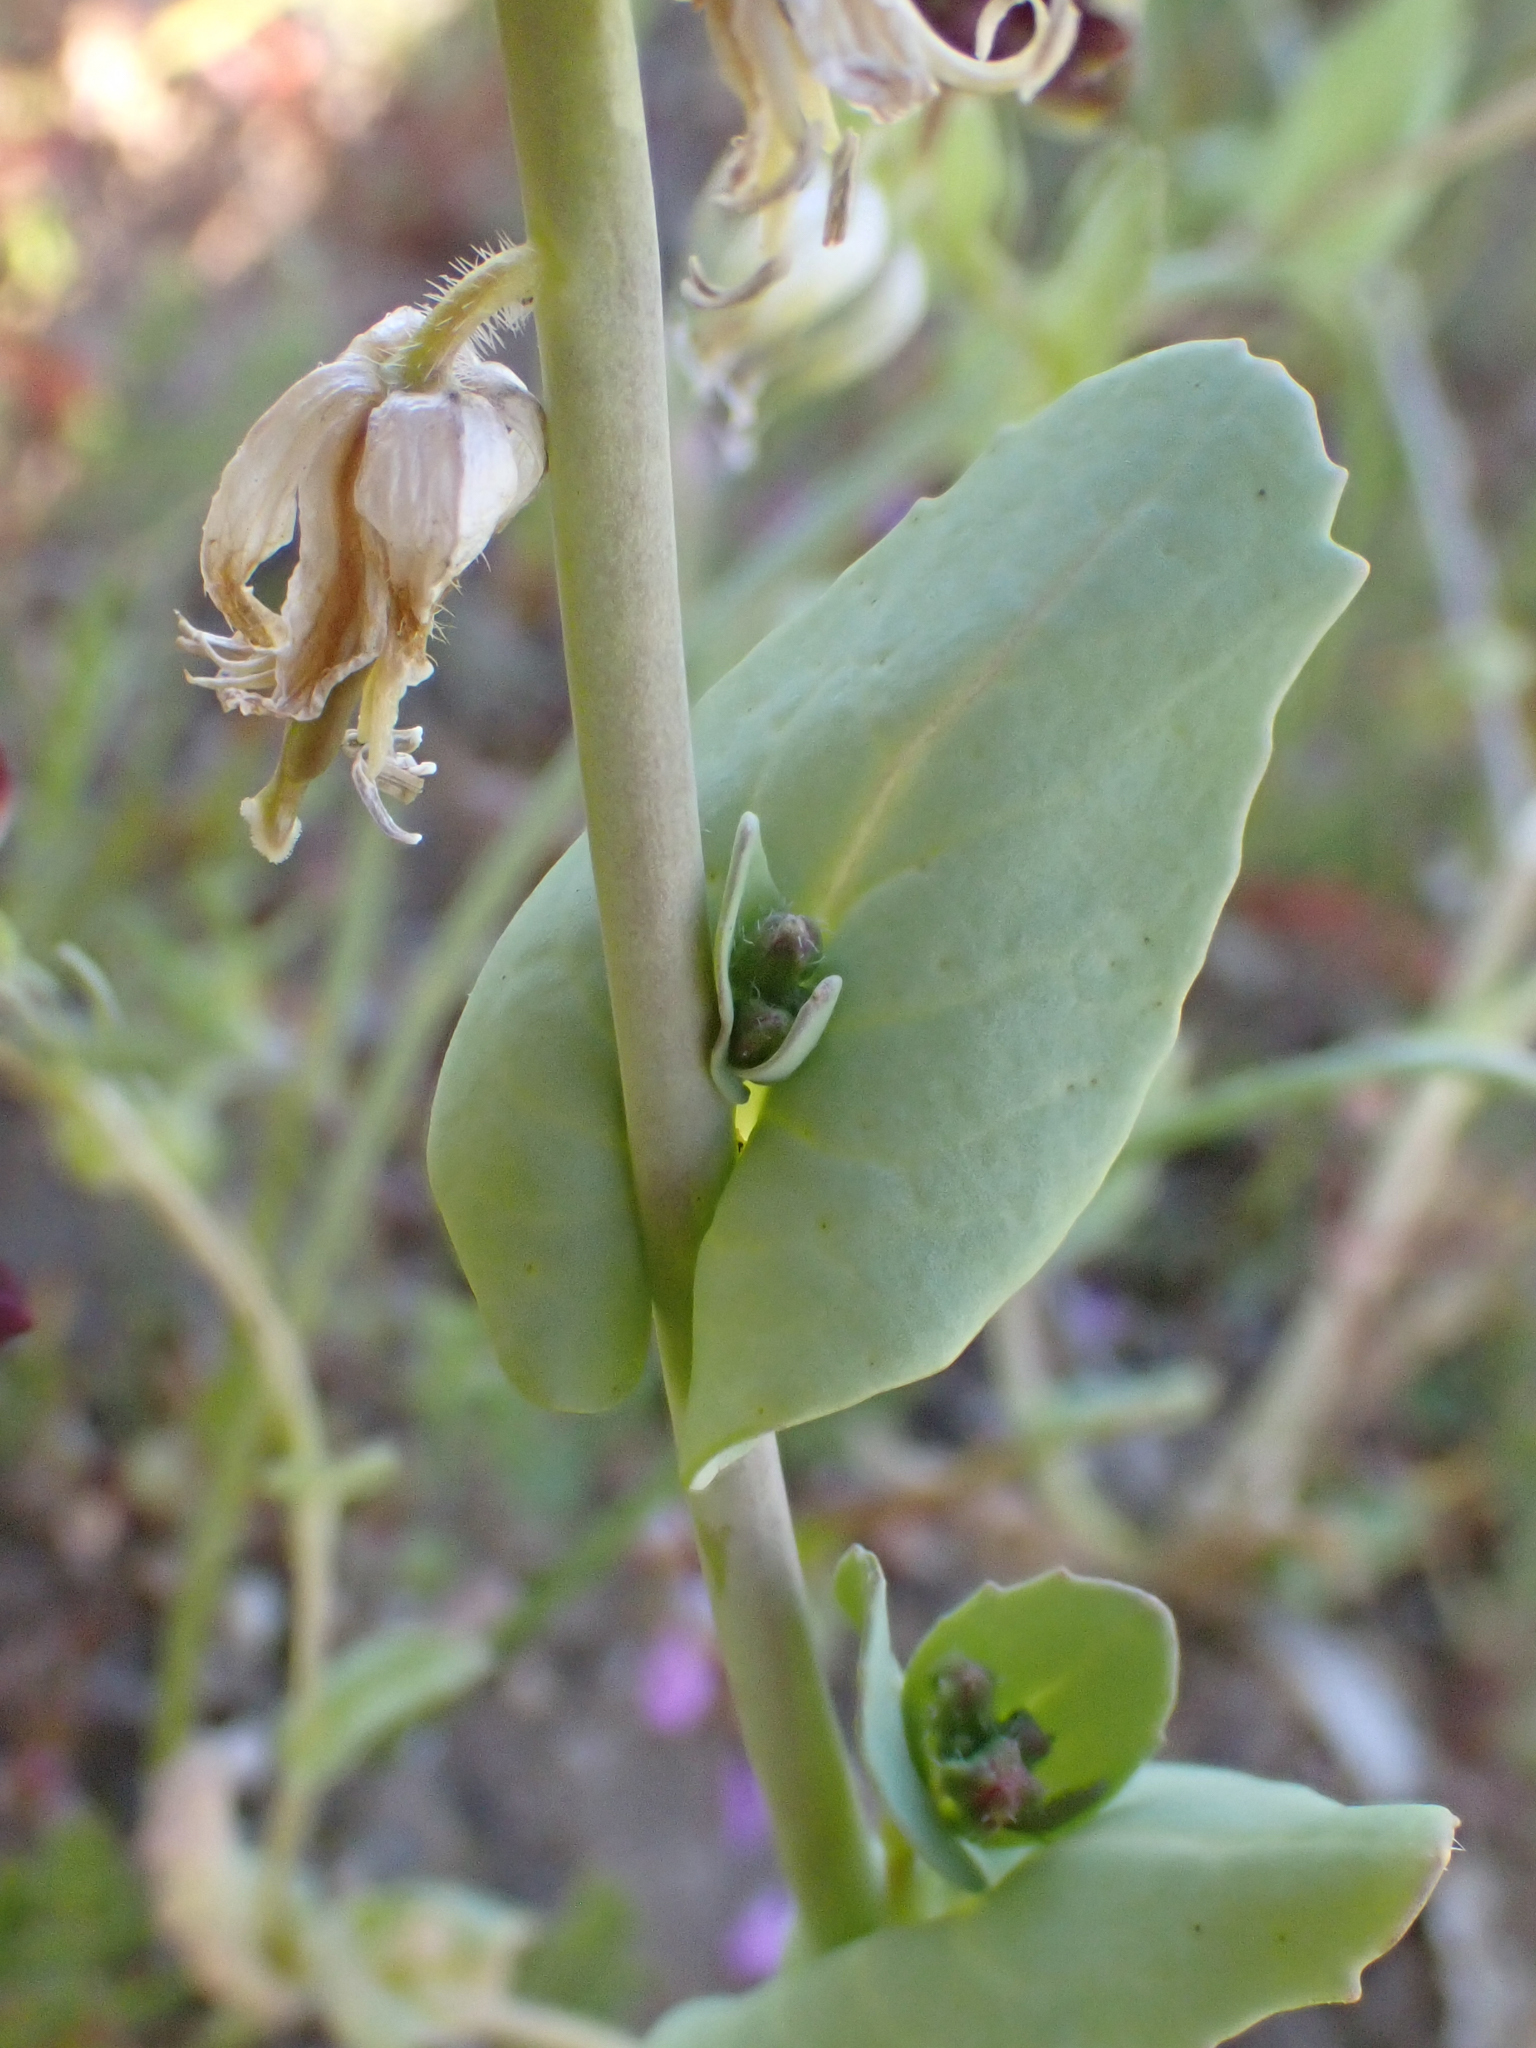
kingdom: Plantae
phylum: Tracheophyta
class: Magnoliopsida
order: Brassicales
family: Brassicaceae
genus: Streptanthus
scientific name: Streptanthus californicus
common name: California-jewel-flower
